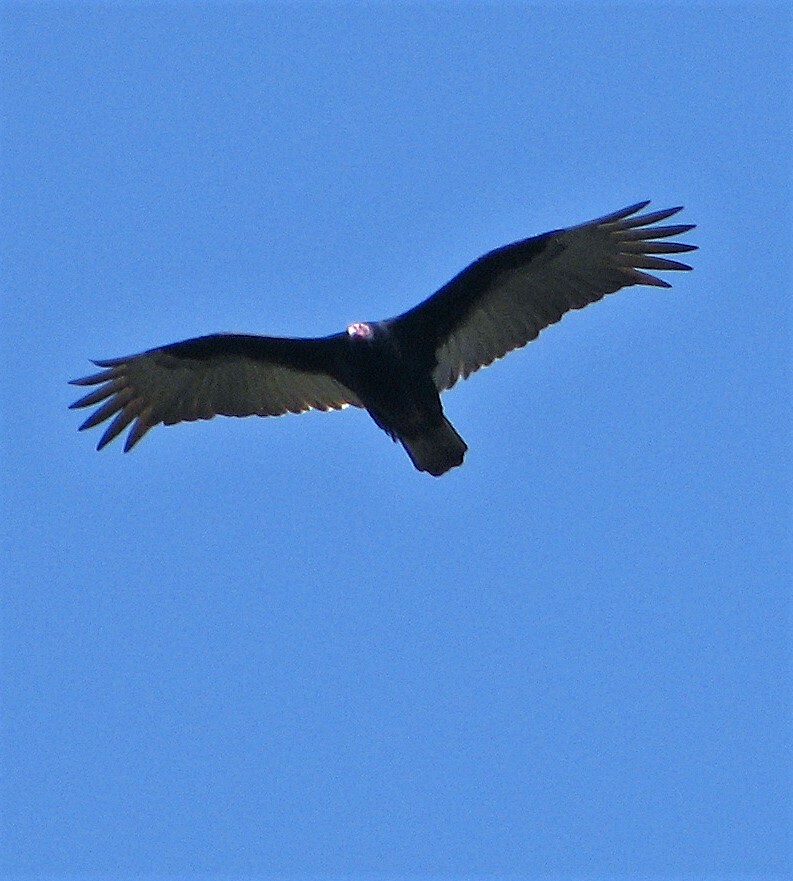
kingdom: Animalia
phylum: Chordata
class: Aves
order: Accipitriformes
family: Cathartidae
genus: Cathartes
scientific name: Cathartes aura
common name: Turkey vulture
